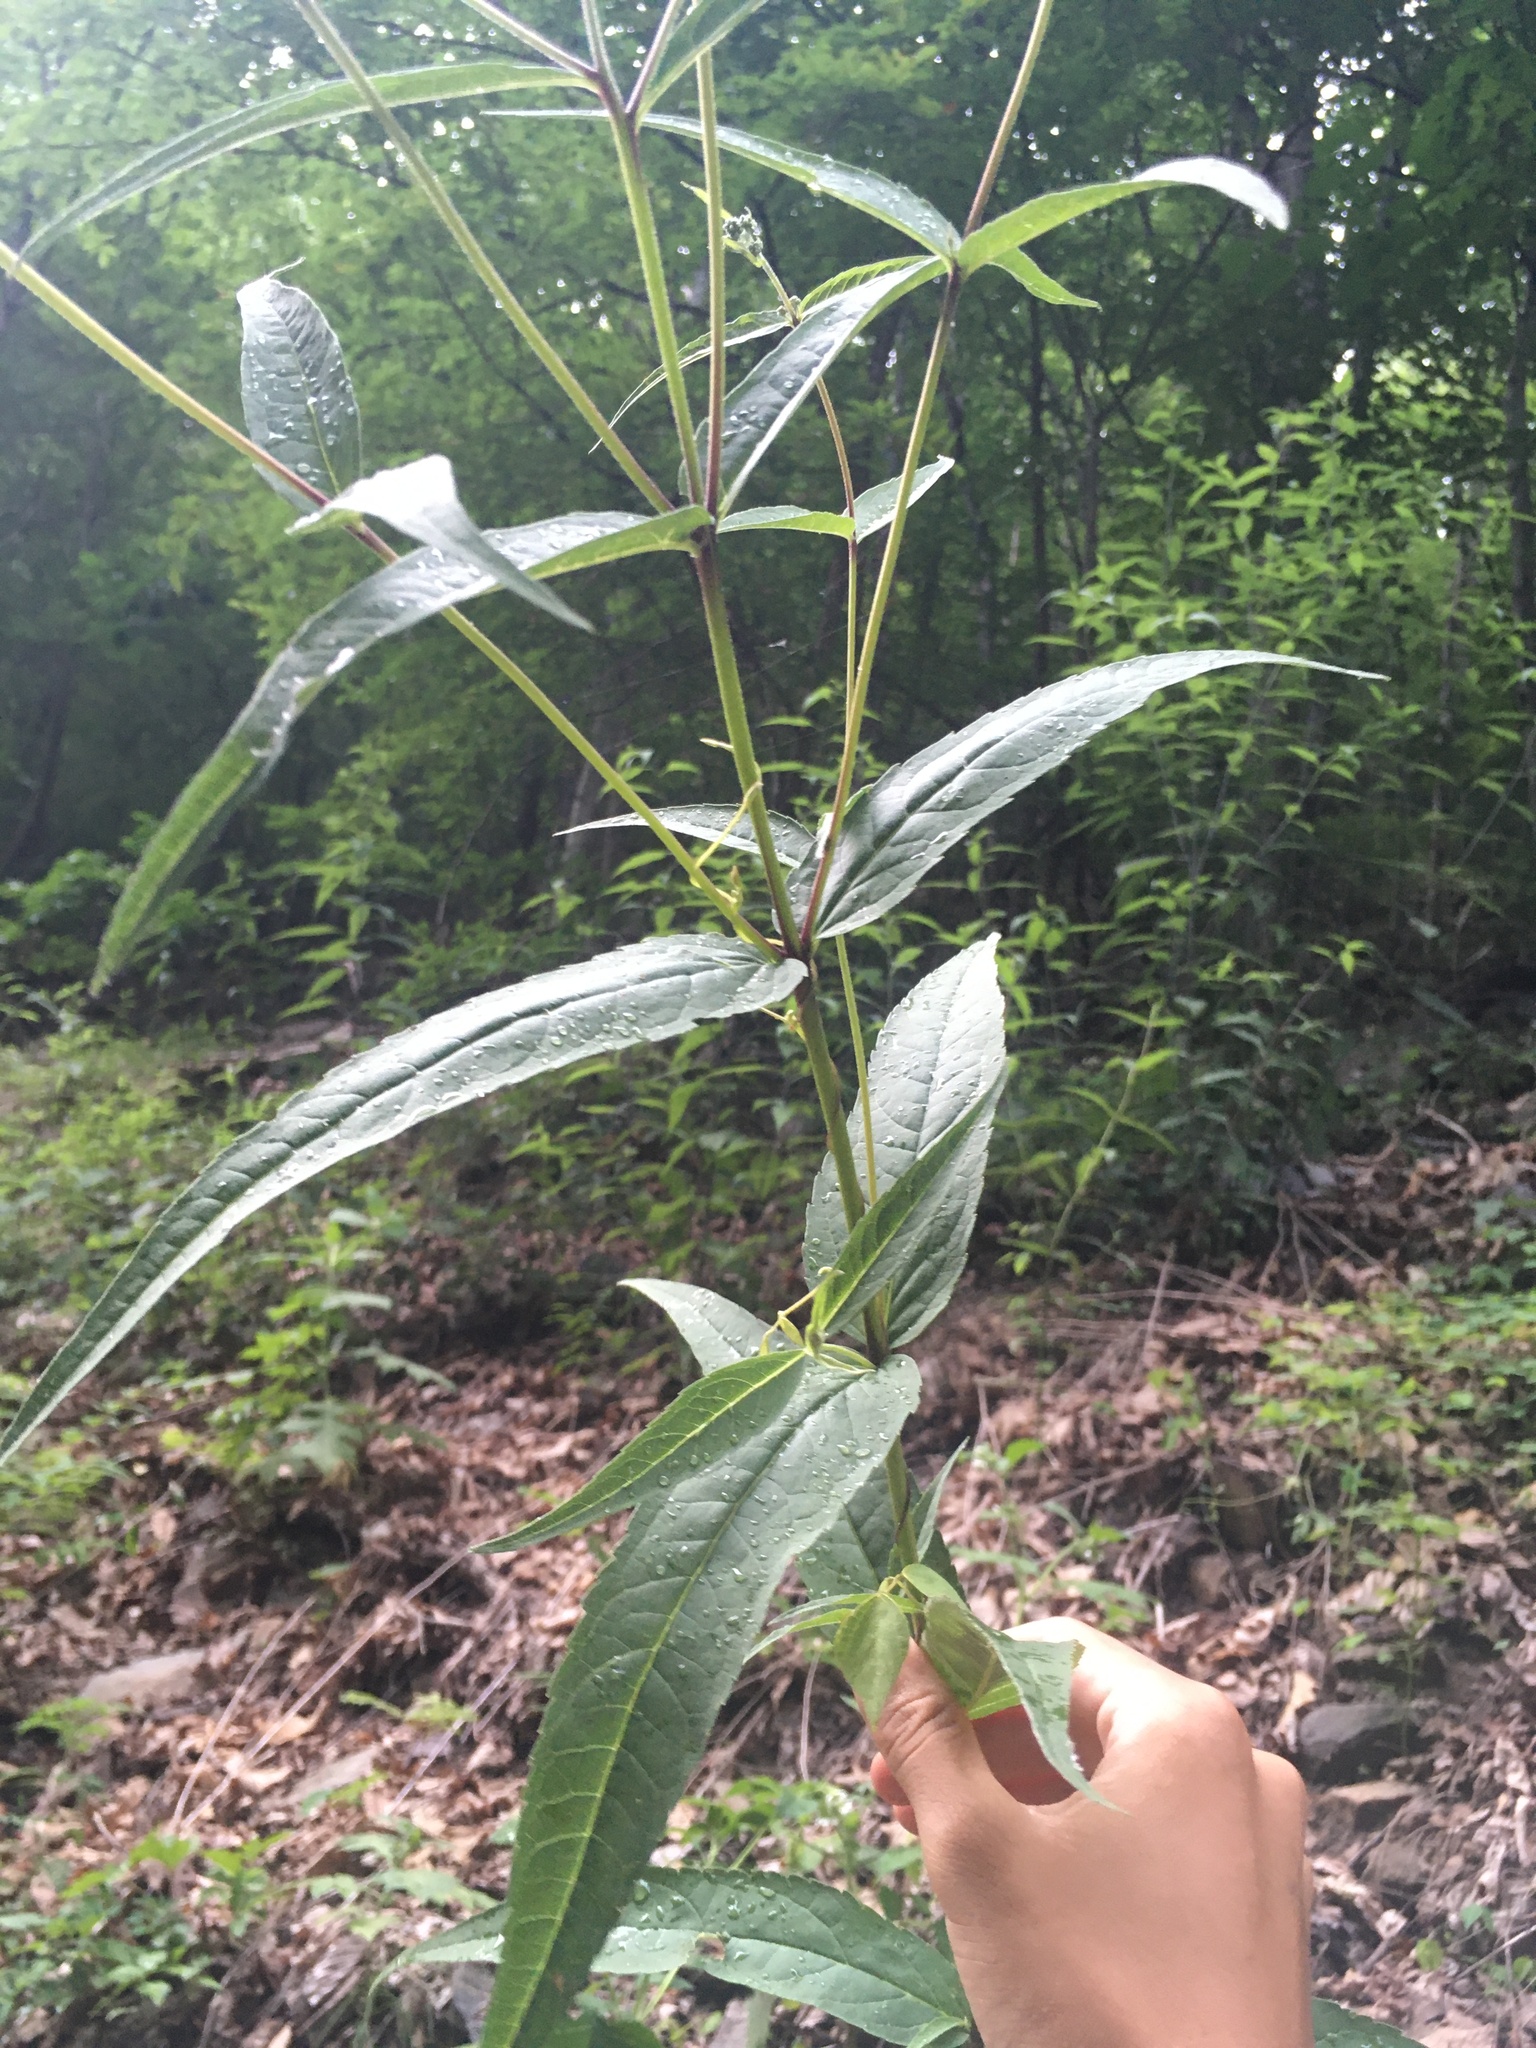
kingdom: Plantae
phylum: Tracheophyta
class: Magnoliopsida
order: Asterales
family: Asteraceae
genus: Eupatorium
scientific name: Eupatorium sessilifolium
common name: Upland boneset
